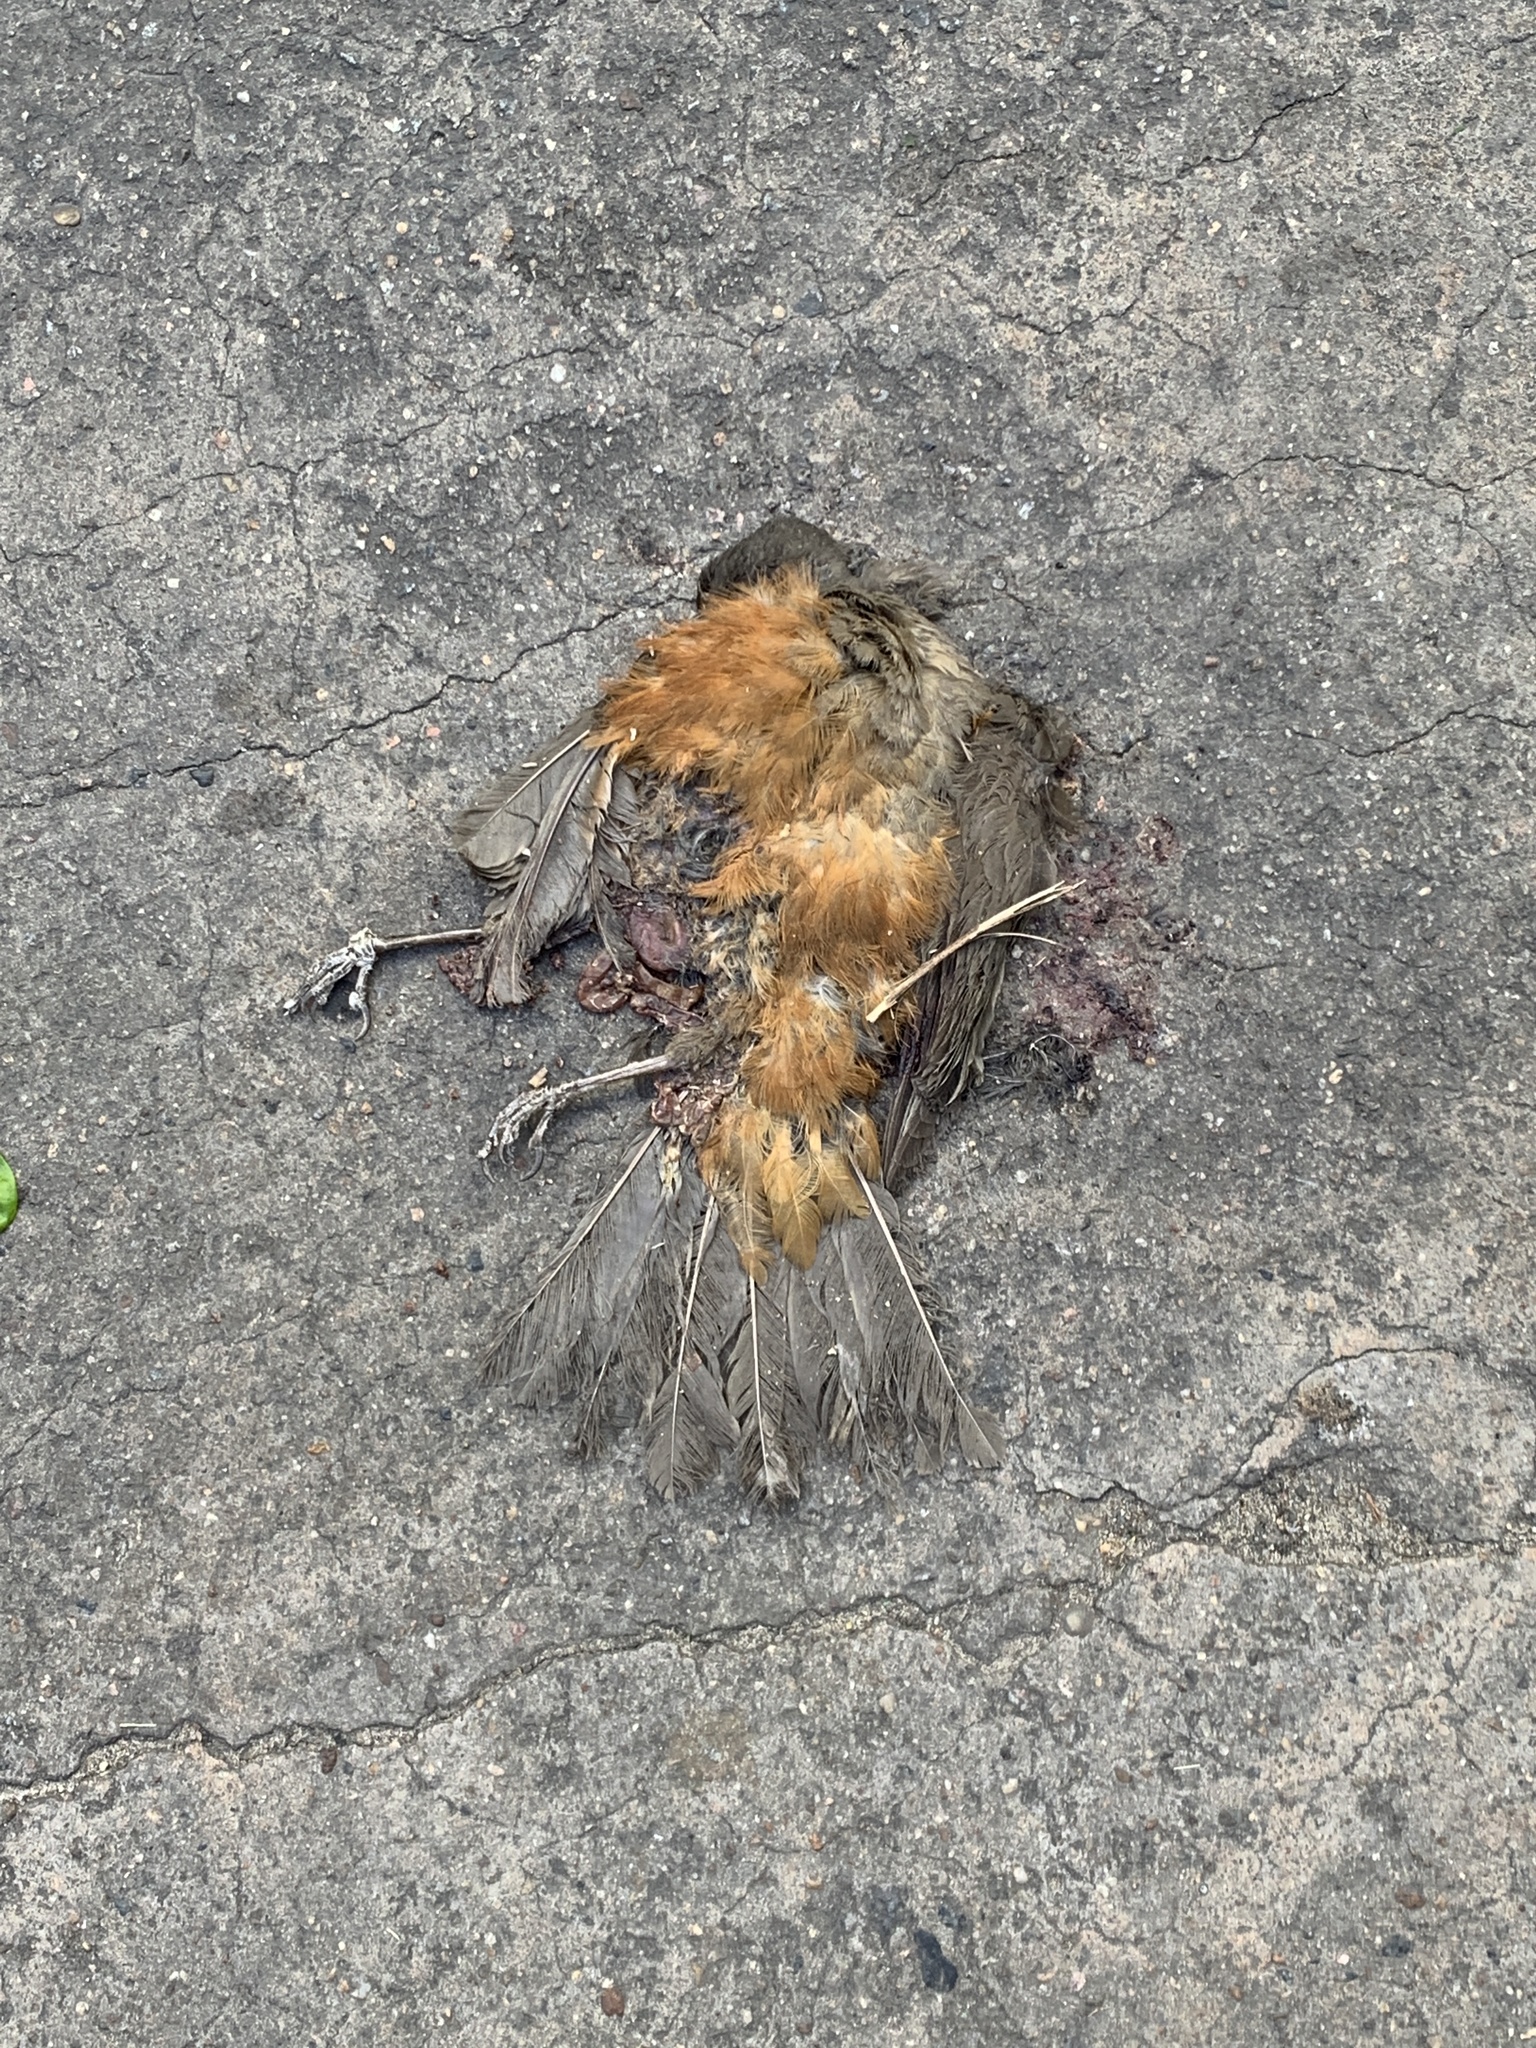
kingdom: Animalia
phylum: Chordata
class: Aves
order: Passeriformes
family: Turdidae
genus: Turdus
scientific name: Turdus rufiventris
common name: Rufous-bellied thrush
